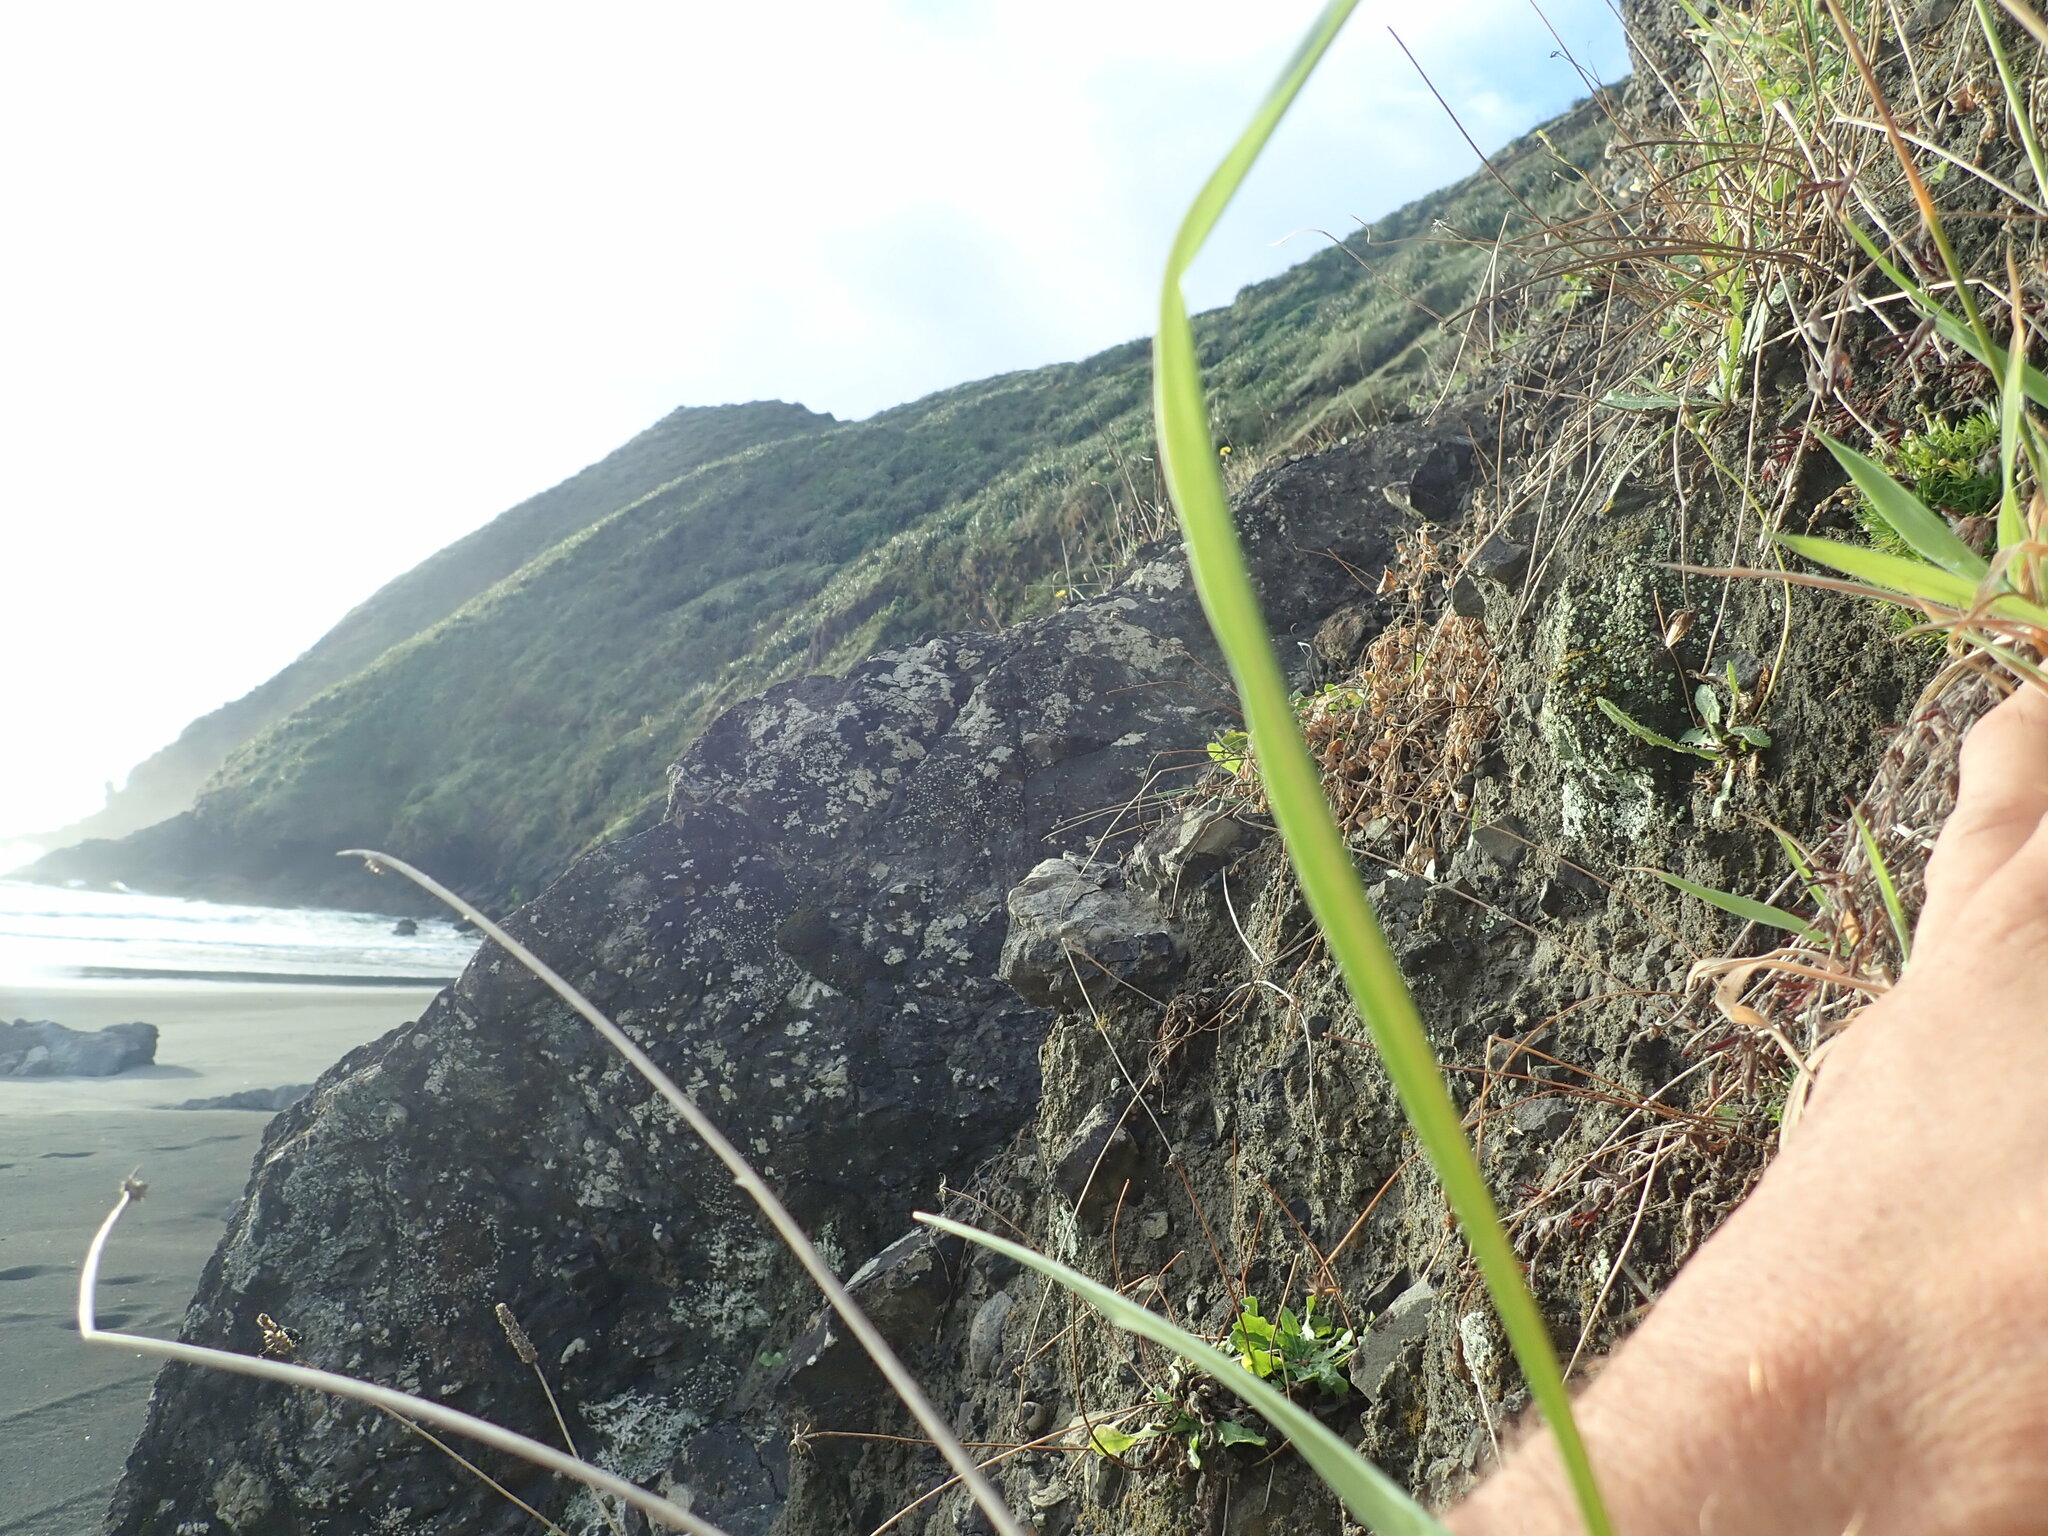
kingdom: Plantae
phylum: Tracheophyta
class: Magnoliopsida
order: Caryophyllales
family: Caryophyllaceae
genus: Sagina
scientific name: Sagina procumbens
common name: Procumbent pearlwort
